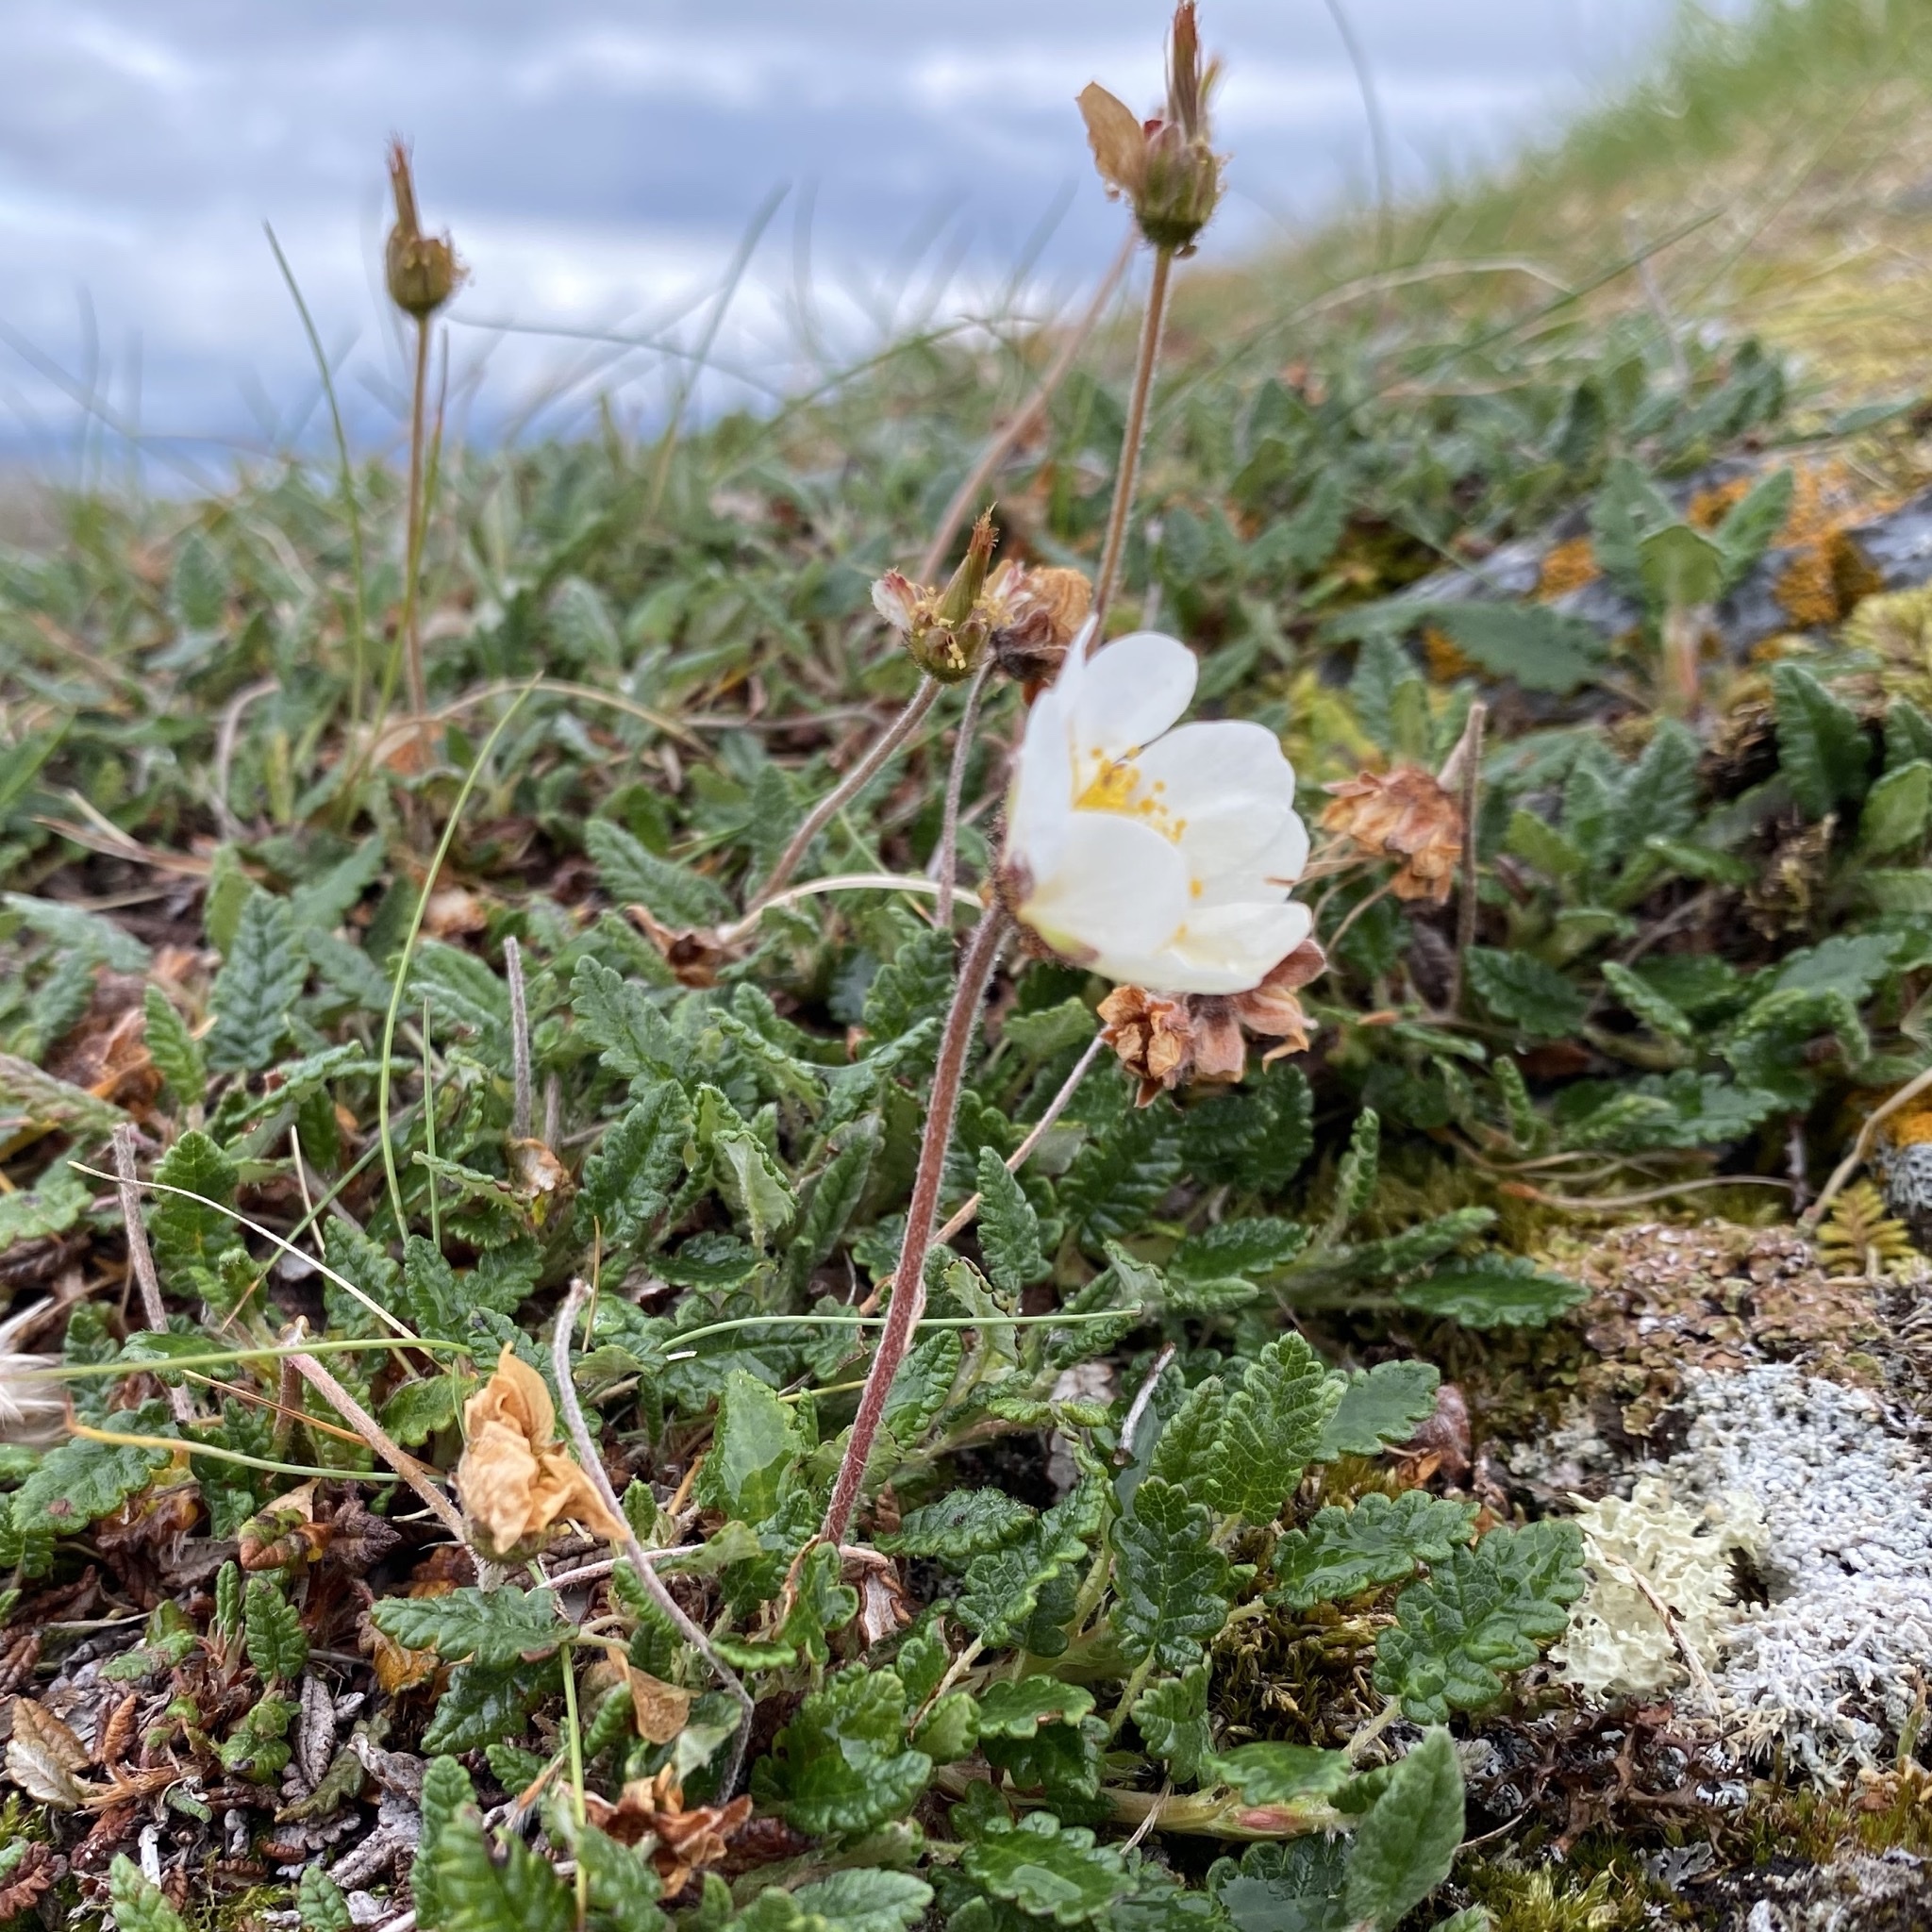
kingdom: Plantae
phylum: Tracheophyta
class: Magnoliopsida
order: Rosales
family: Rosaceae
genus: Dryas
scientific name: Dryas octopetala
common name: Eight-petal mountain-avens
